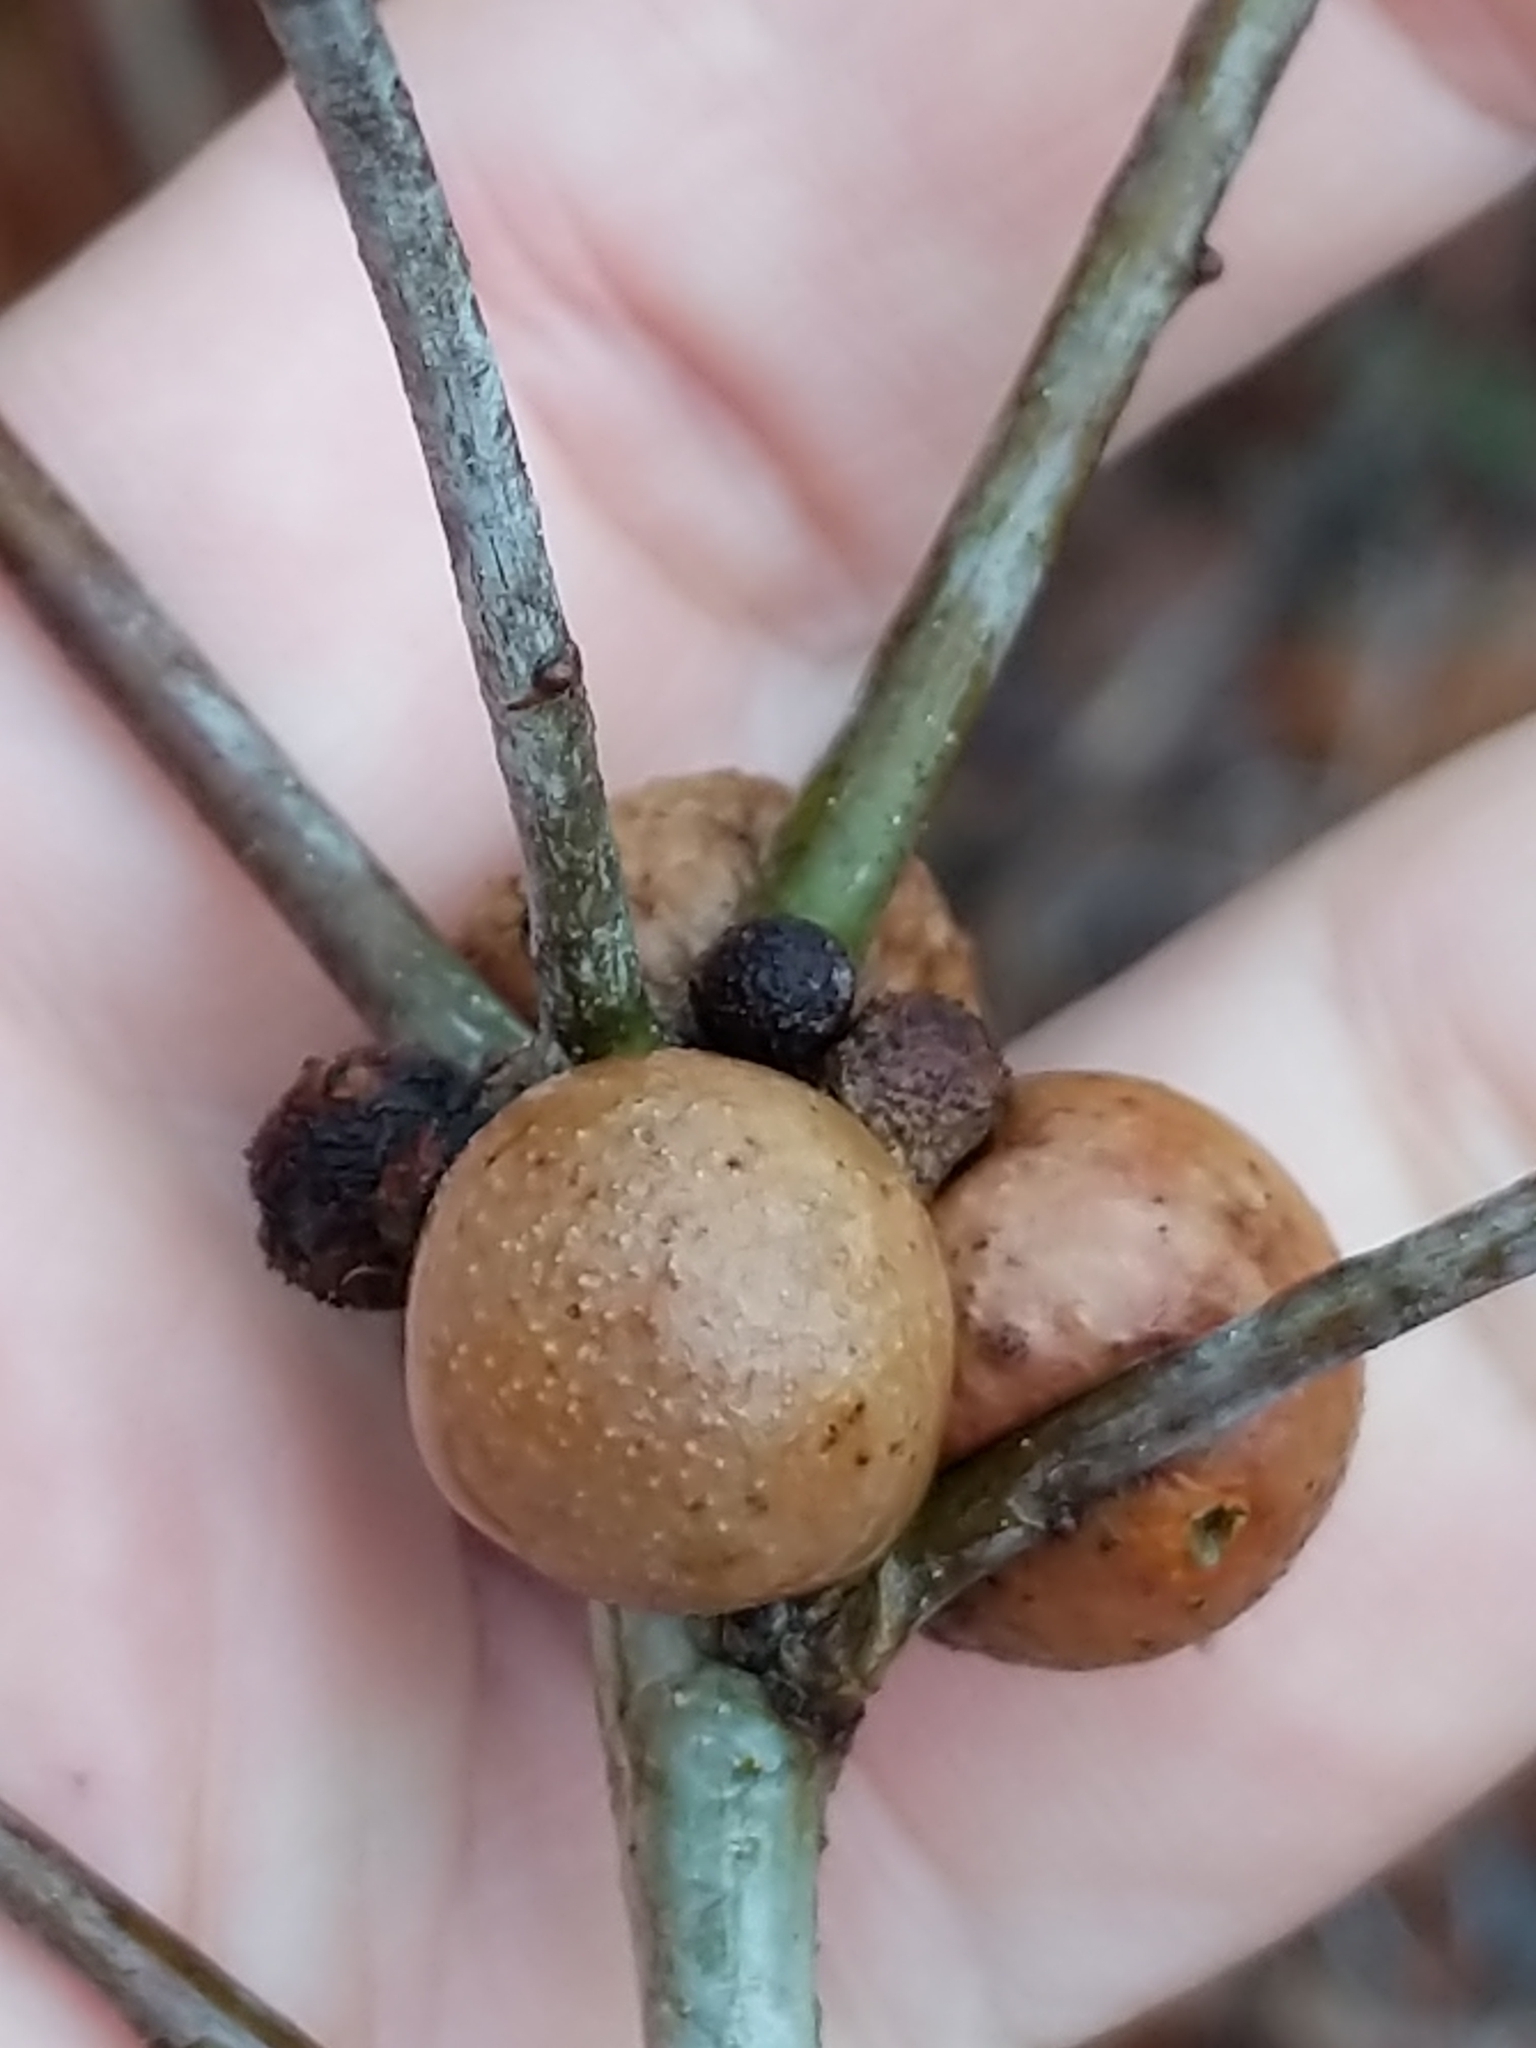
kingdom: Animalia
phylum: Arthropoda
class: Insecta
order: Hymenoptera
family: Cynipidae
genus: Disholcaspis
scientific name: Disholcaspis quercusglobulus
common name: Round bullet gall wasp
